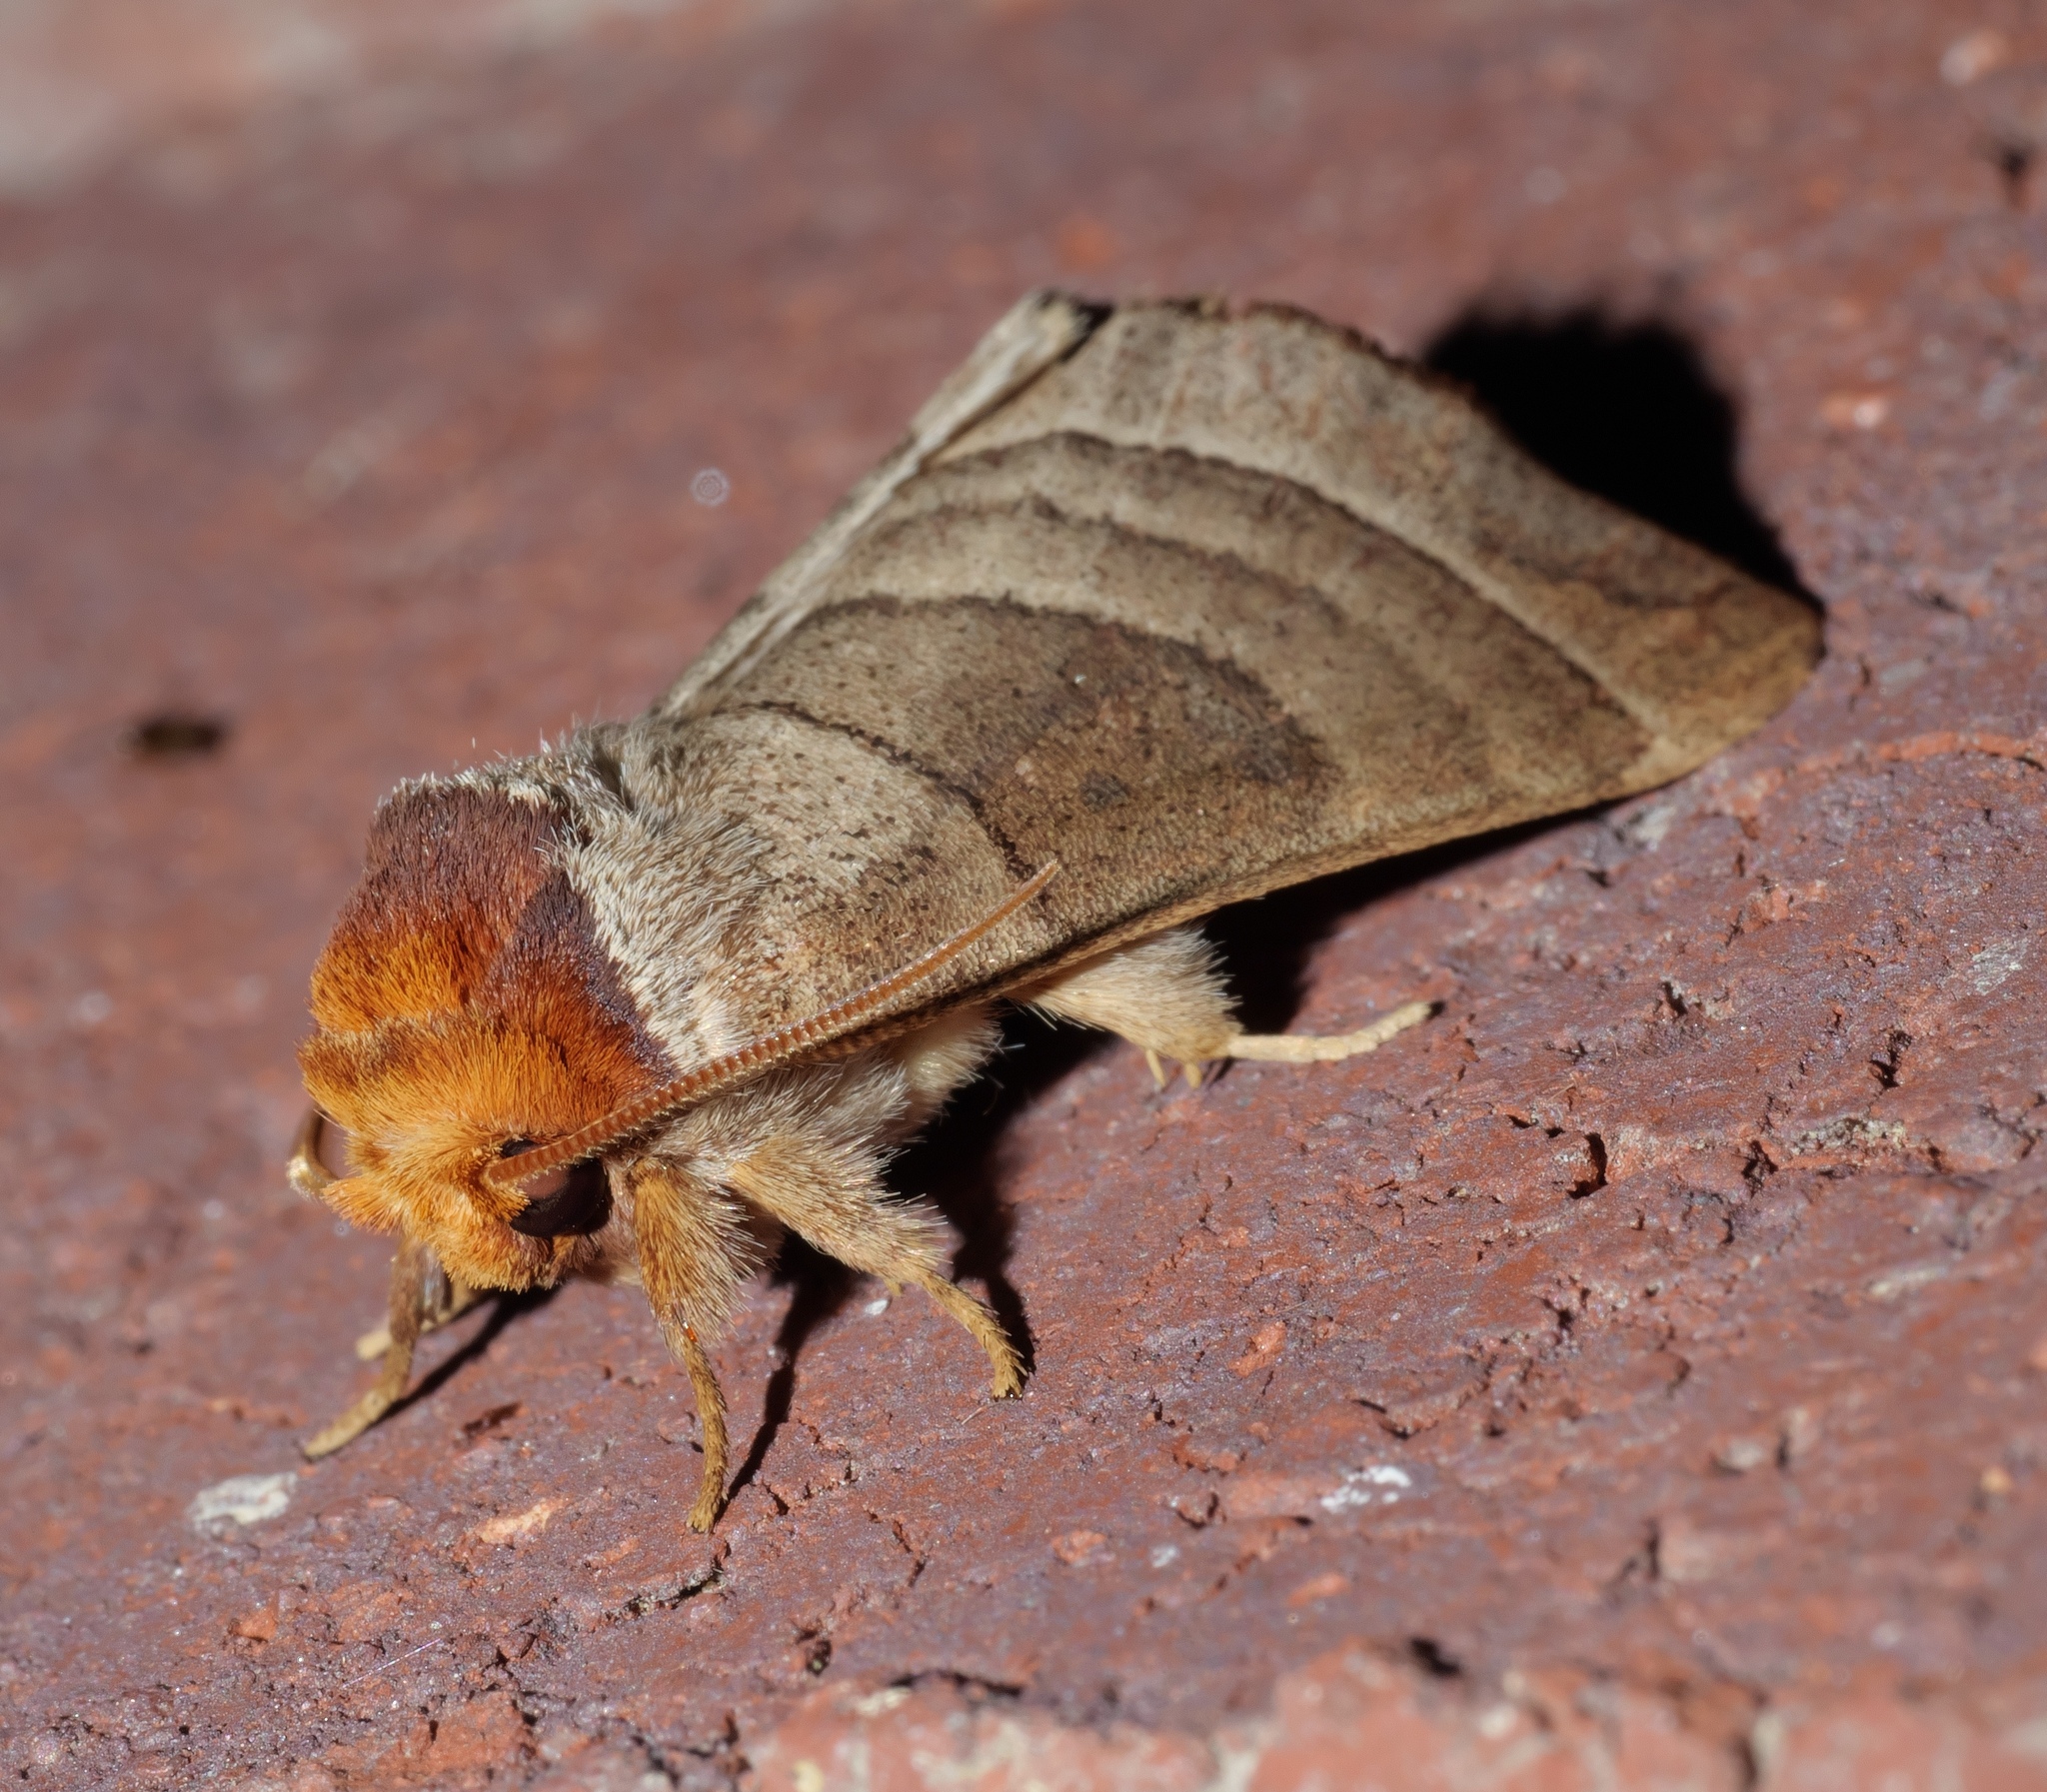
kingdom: Animalia
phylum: Arthropoda
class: Insecta
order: Lepidoptera
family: Notodontidae
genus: Datana
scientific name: Datana integerrima
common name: Walnut caterpillar
